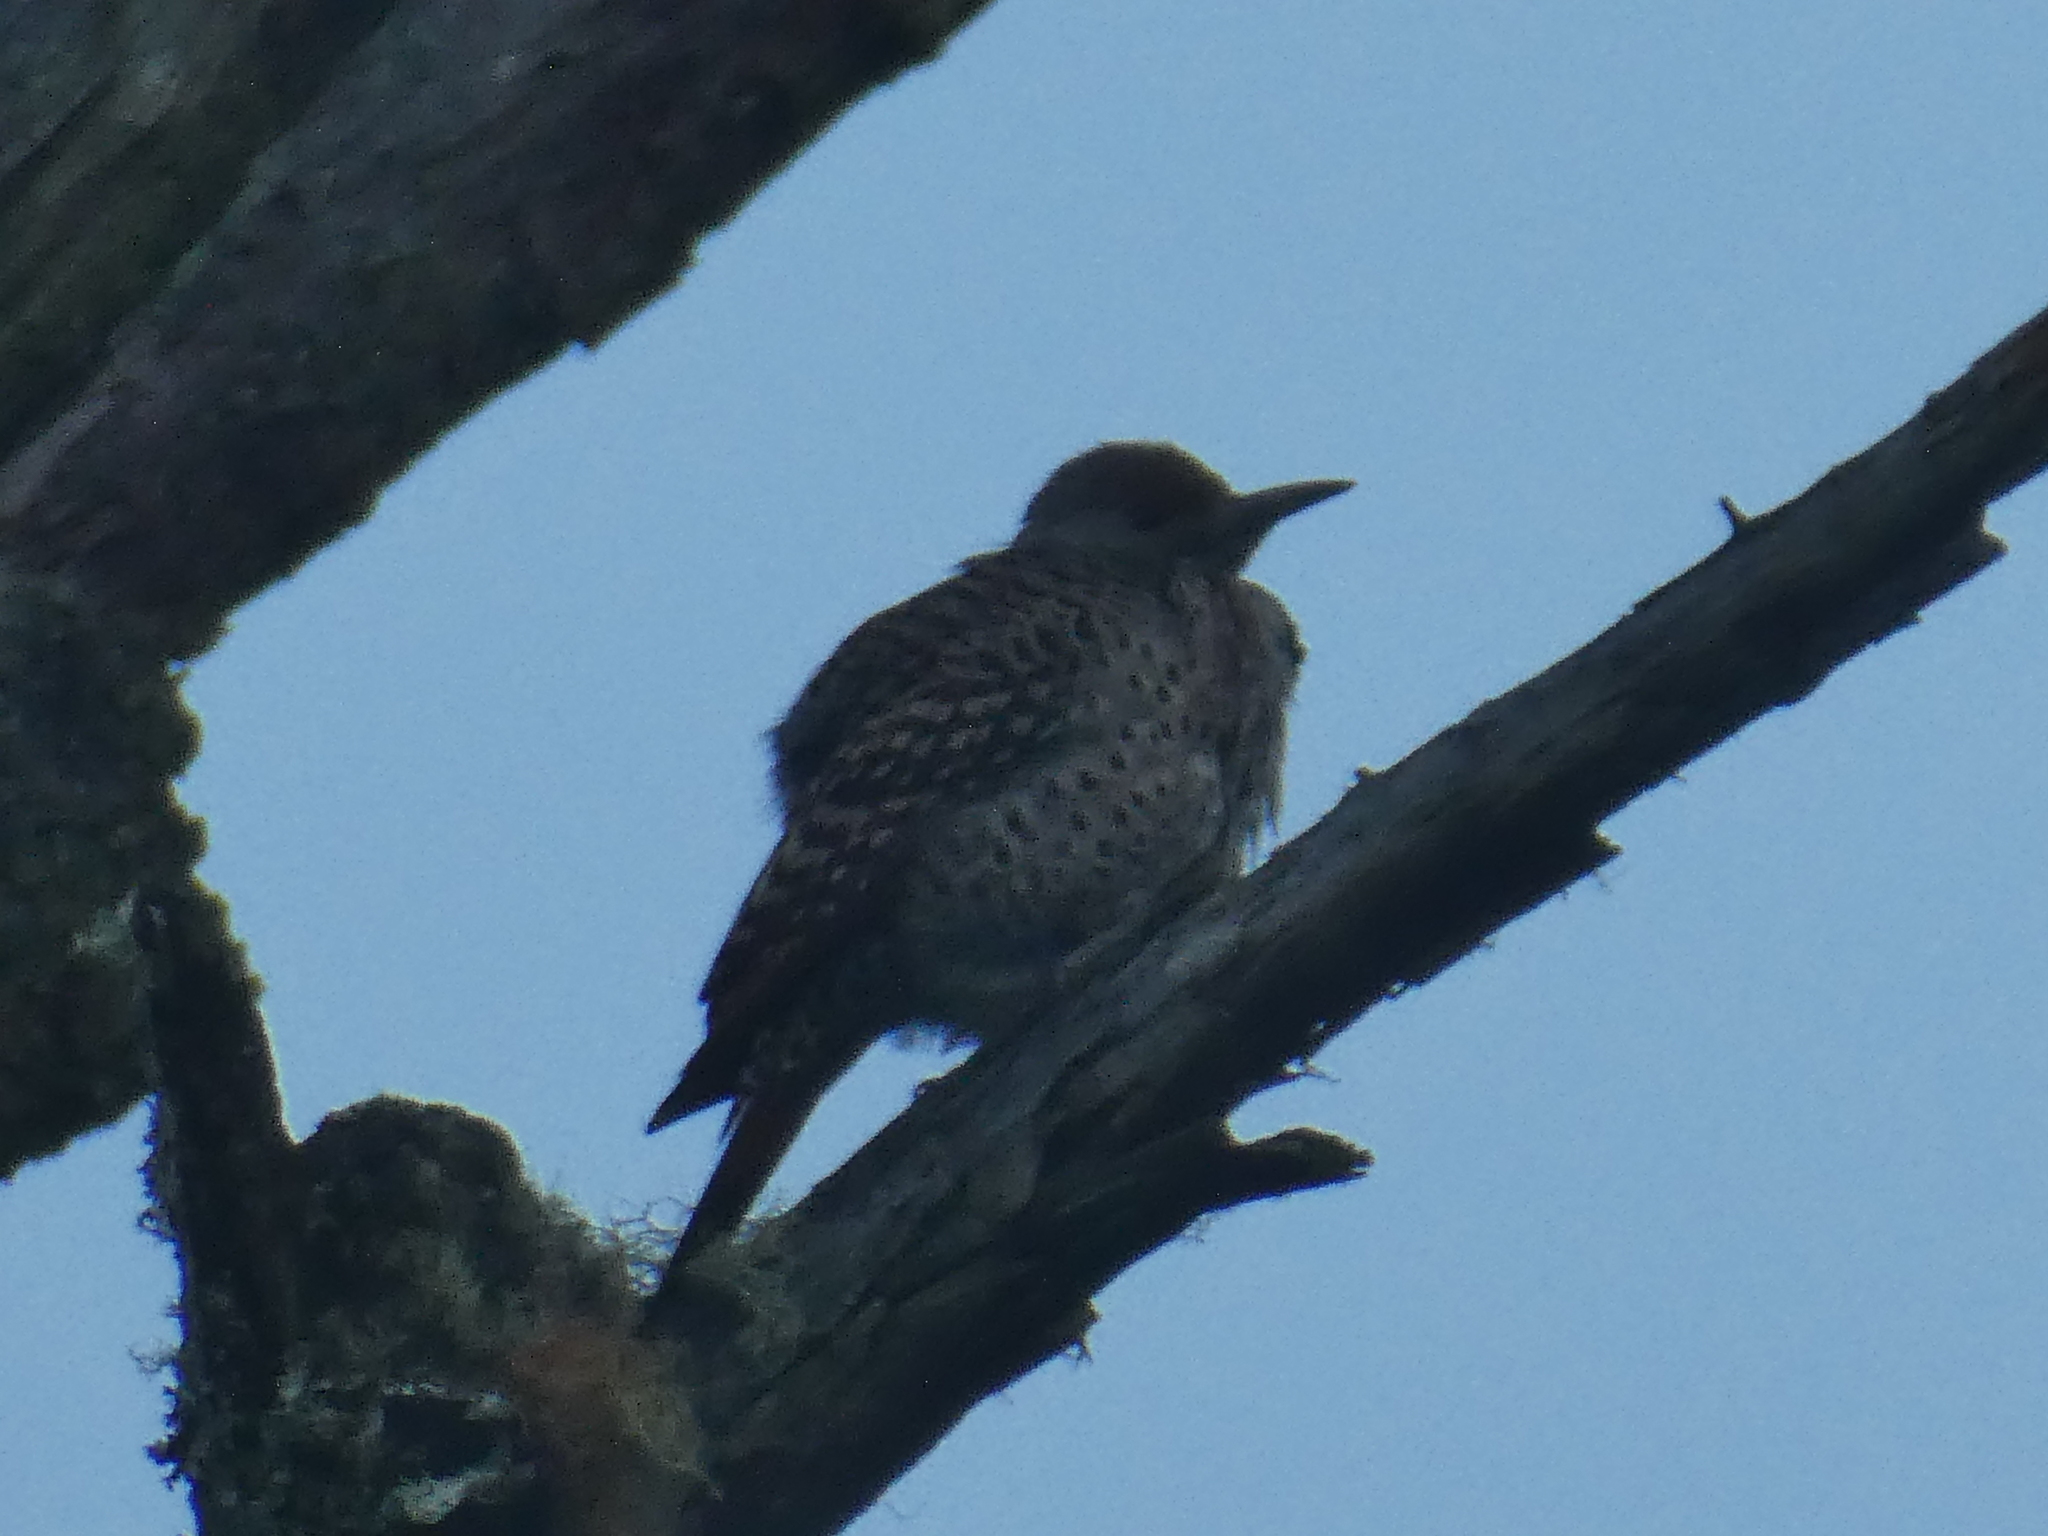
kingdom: Animalia
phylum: Chordata
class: Aves
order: Piciformes
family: Picidae
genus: Colaptes
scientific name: Colaptes auratus
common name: Northern flicker
